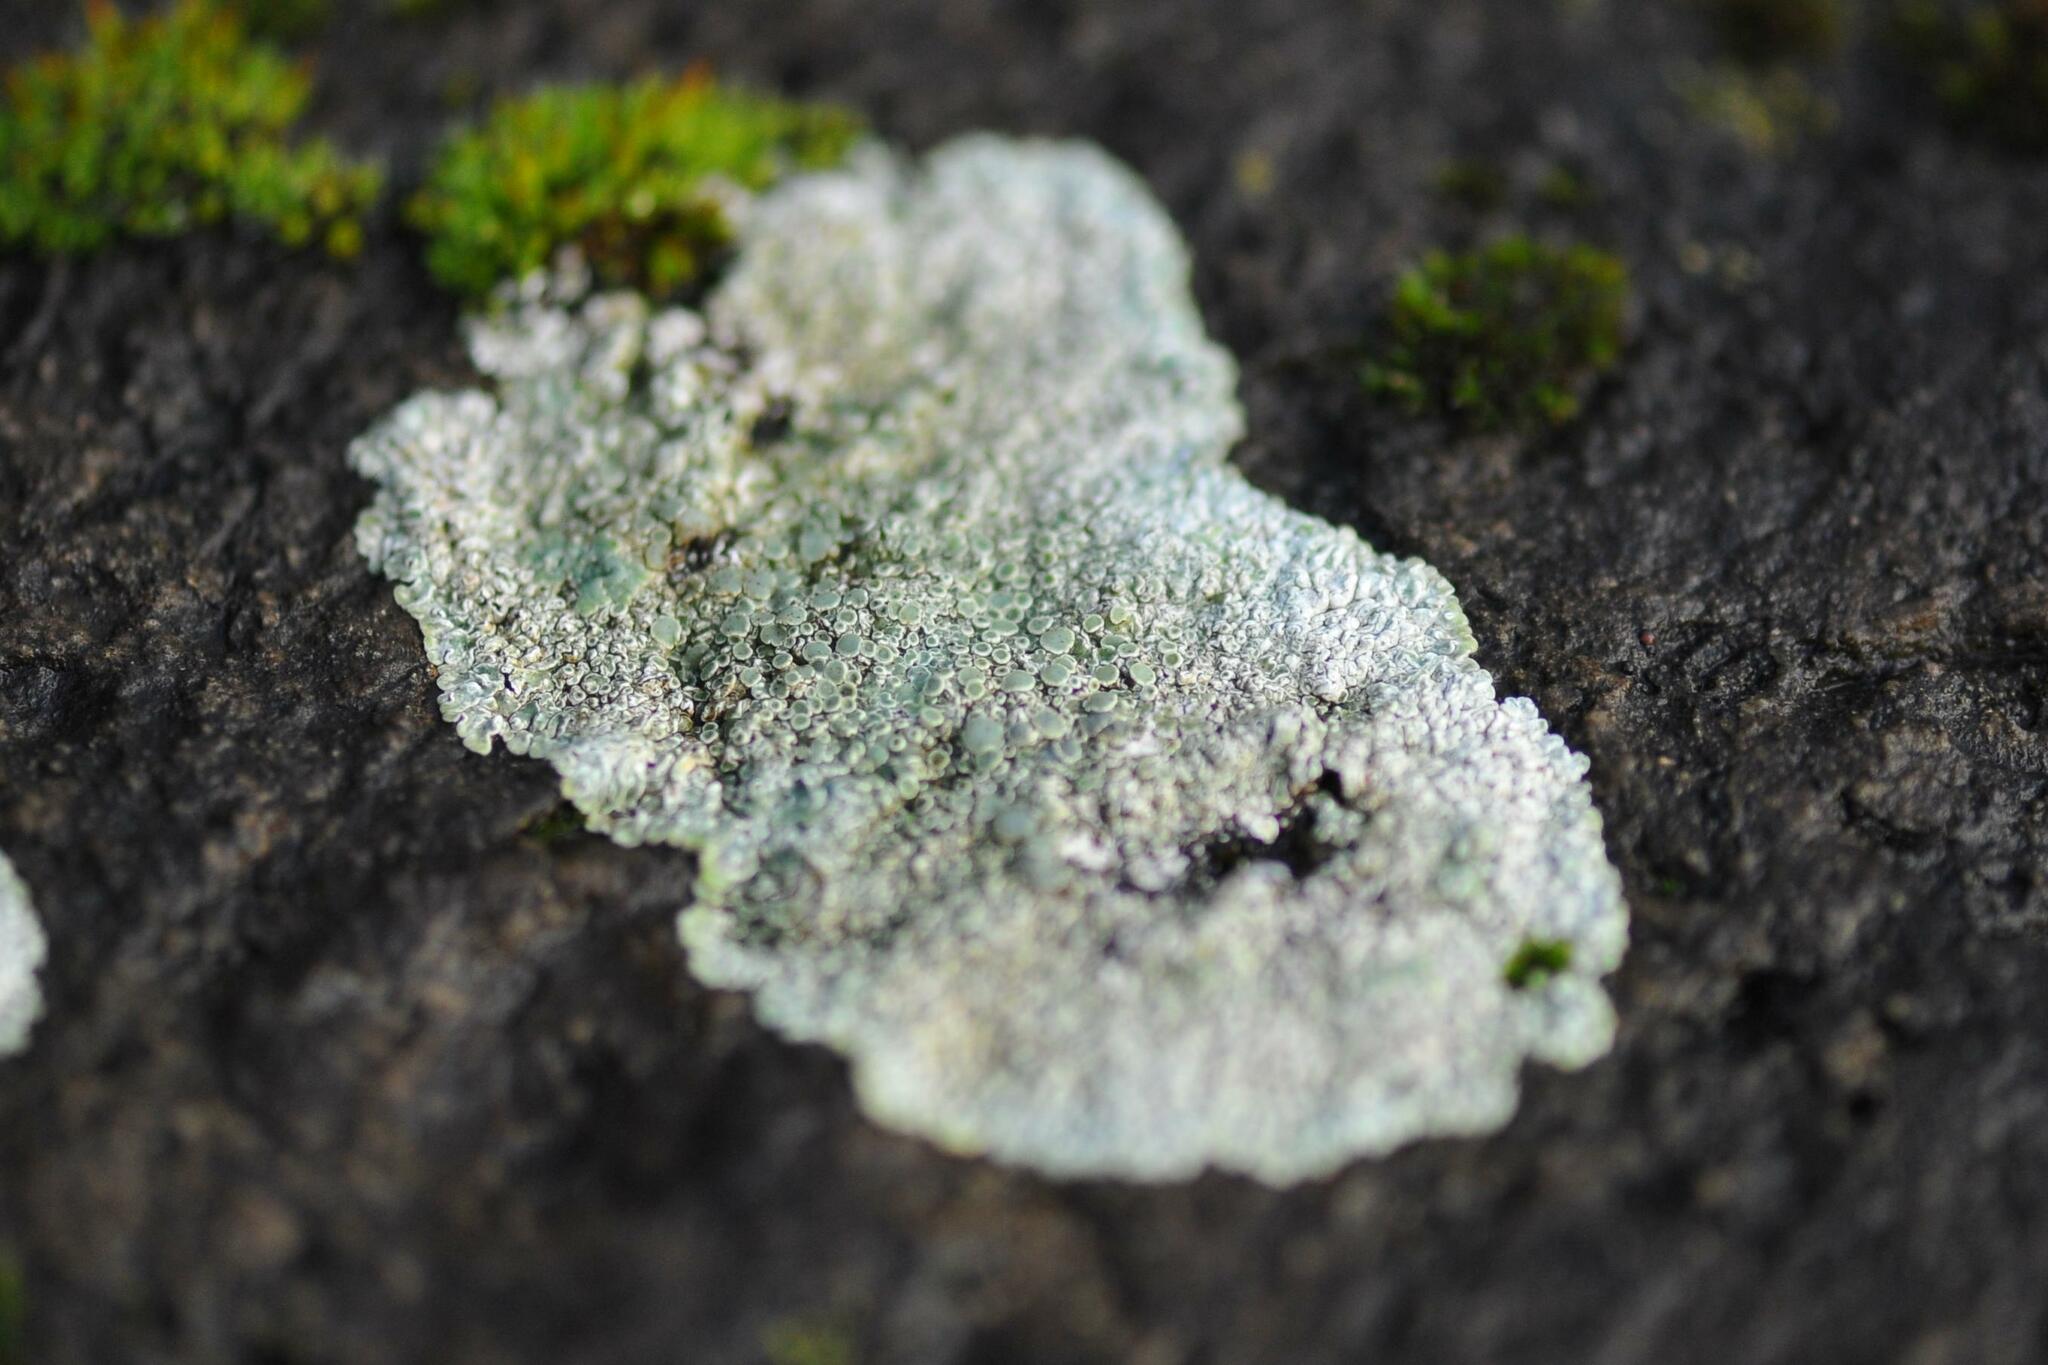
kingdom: Fungi
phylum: Ascomycota
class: Lecanoromycetes
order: Lecanorales
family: Lecanoraceae
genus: Protoparmeliopsis
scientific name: Protoparmeliopsis muralis
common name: Stonewall rim lichen
